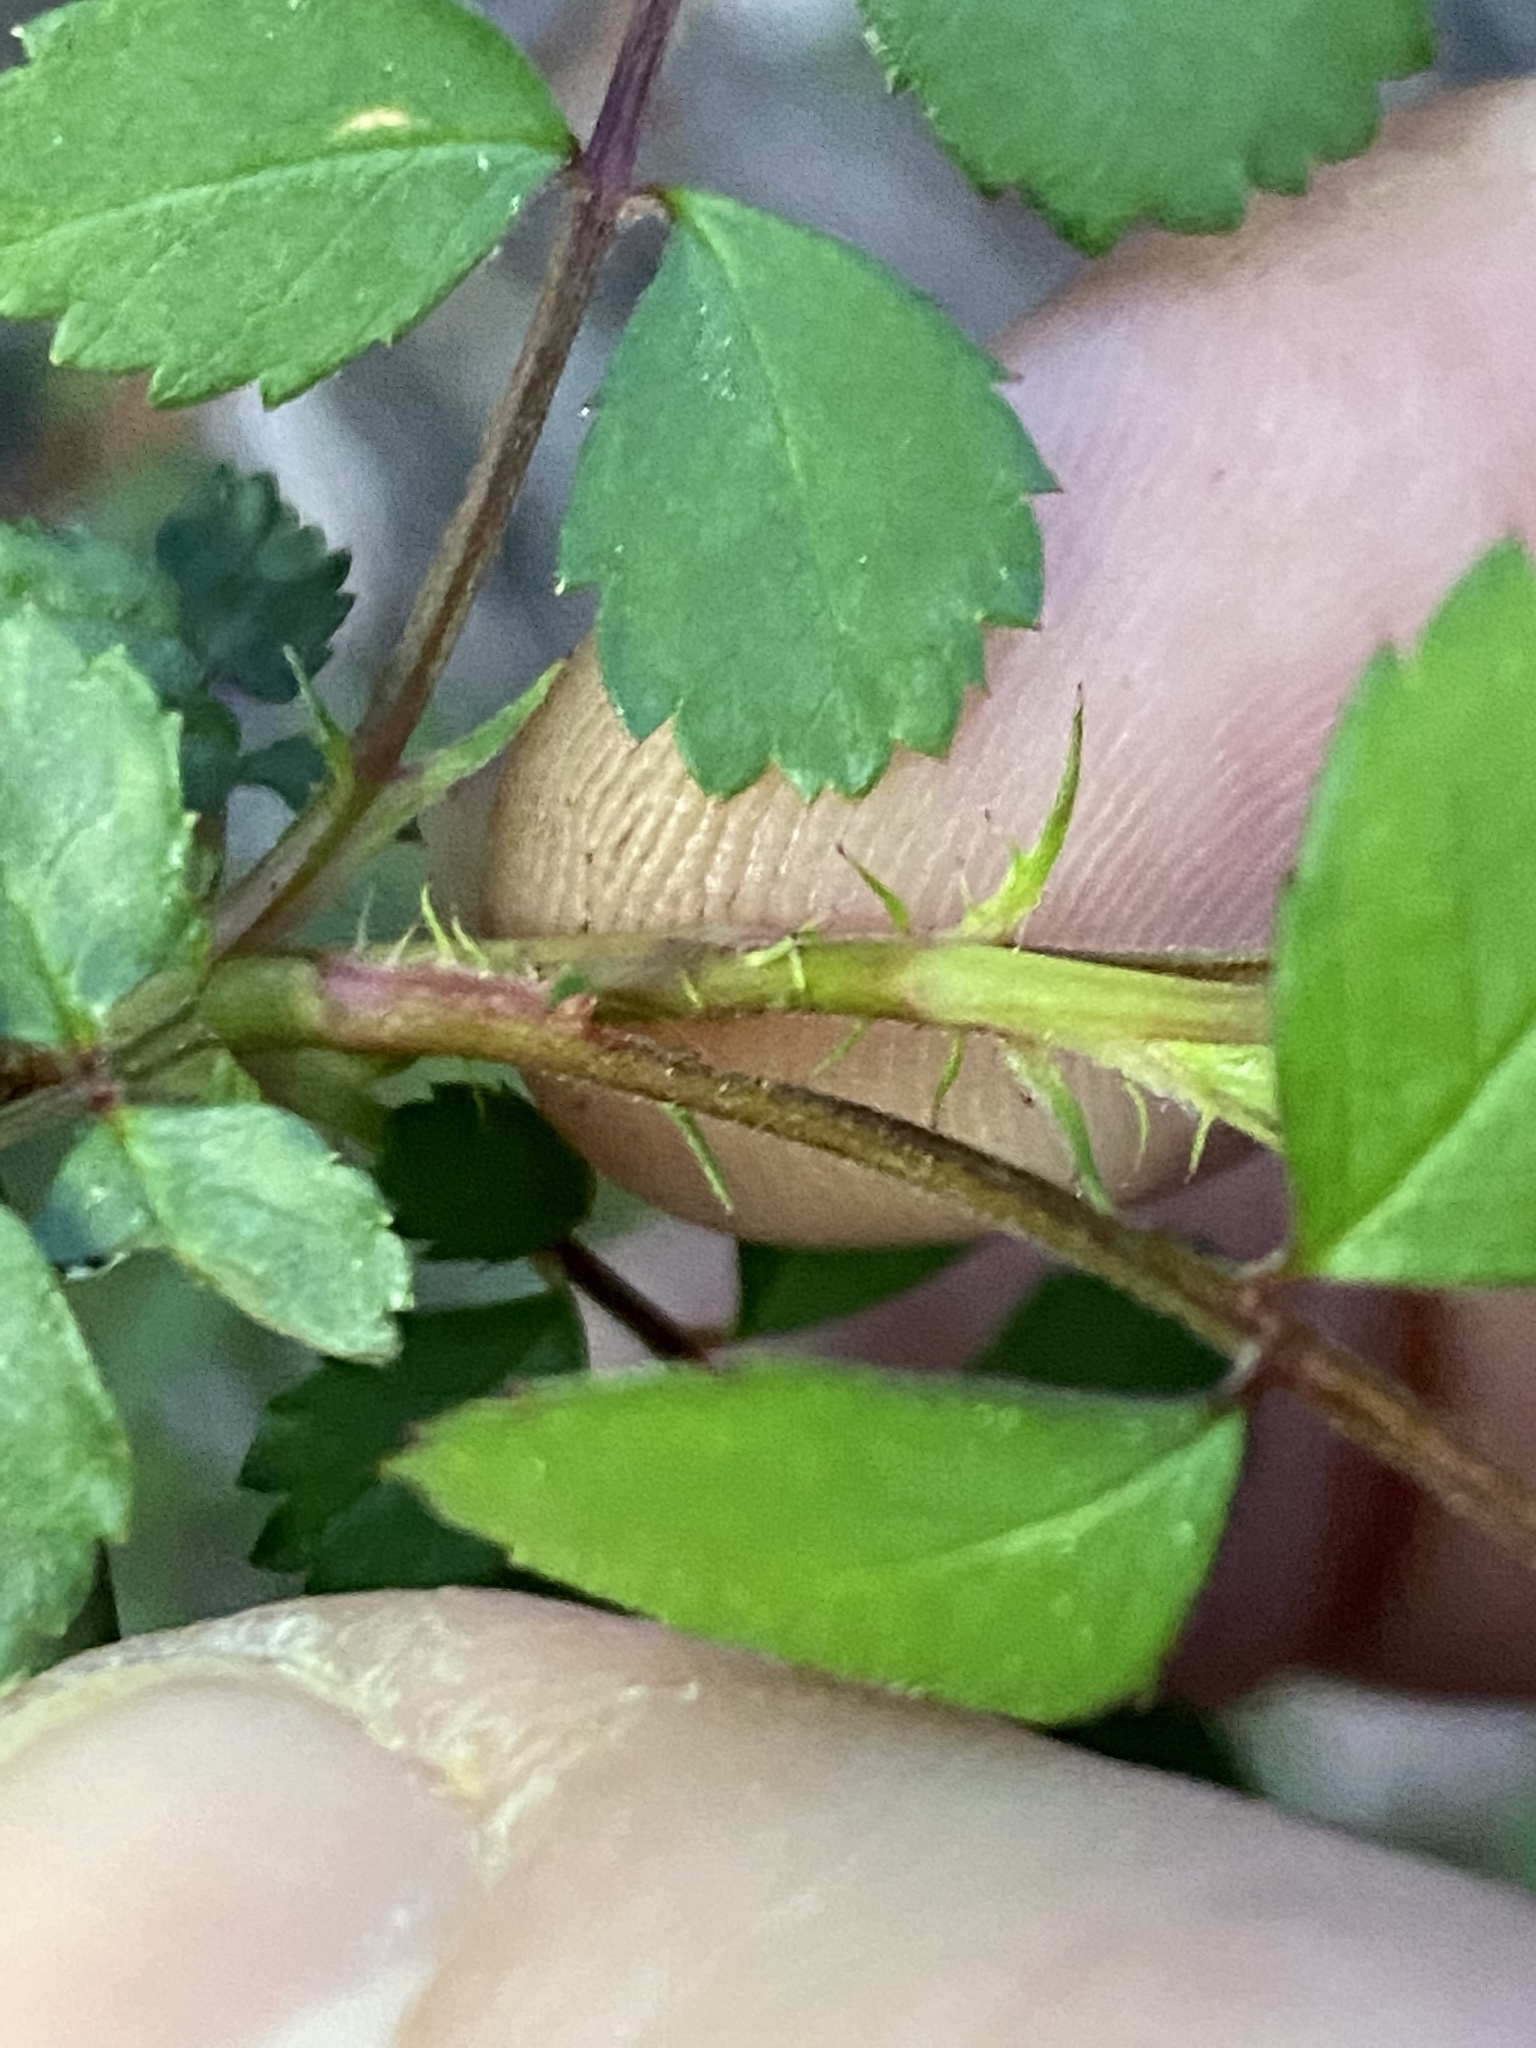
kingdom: Plantae
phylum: Tracheophyta
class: Magnoliopsida
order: Rosales
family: Rosaceae
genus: Rosa
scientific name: Rosa multiflora
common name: Multiflora rose
